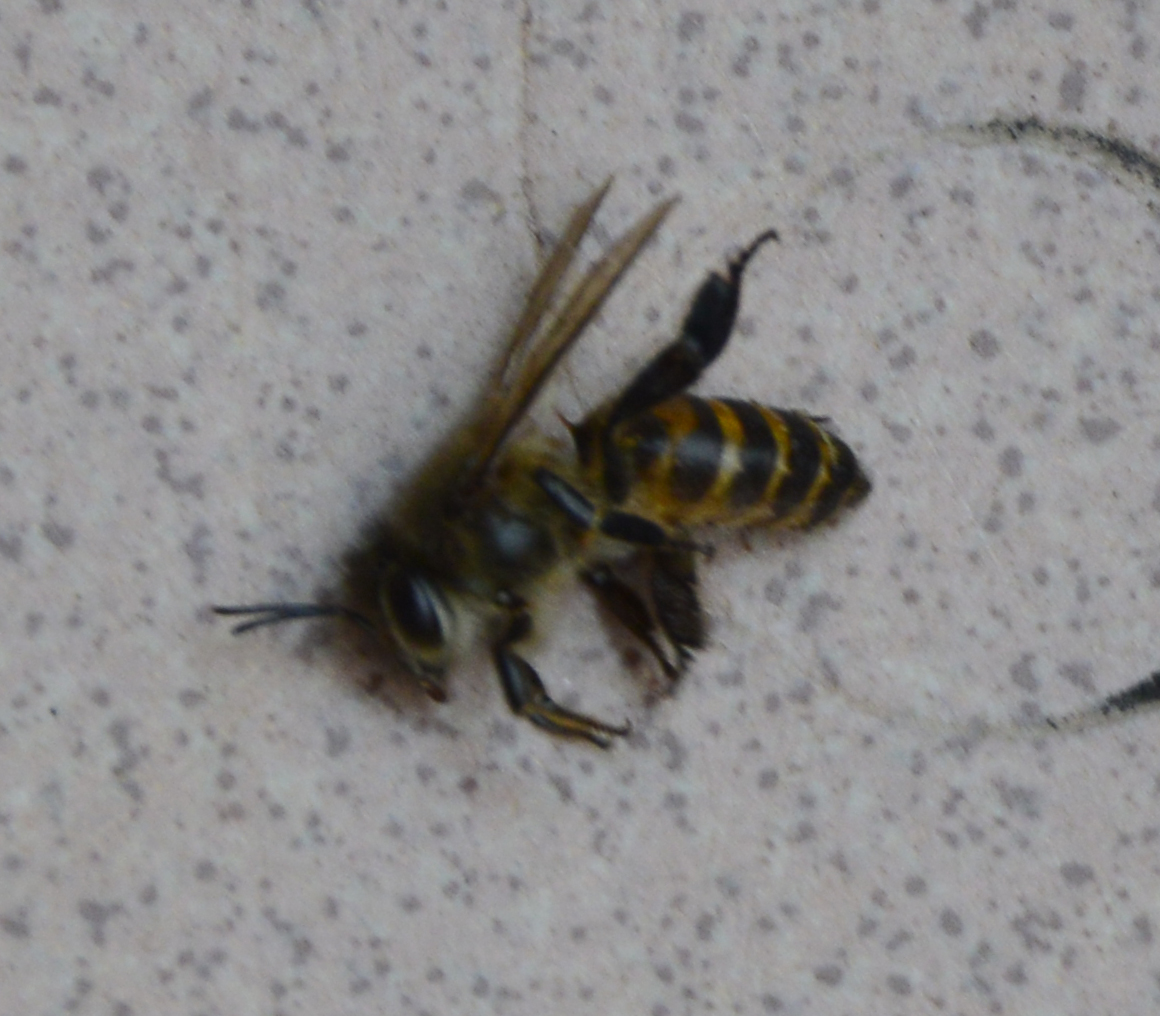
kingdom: Animalia
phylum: Arthropoda
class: Insecta
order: Hymenoptera
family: Apidae
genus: Apis
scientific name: Apis cerana
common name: Honey bee
